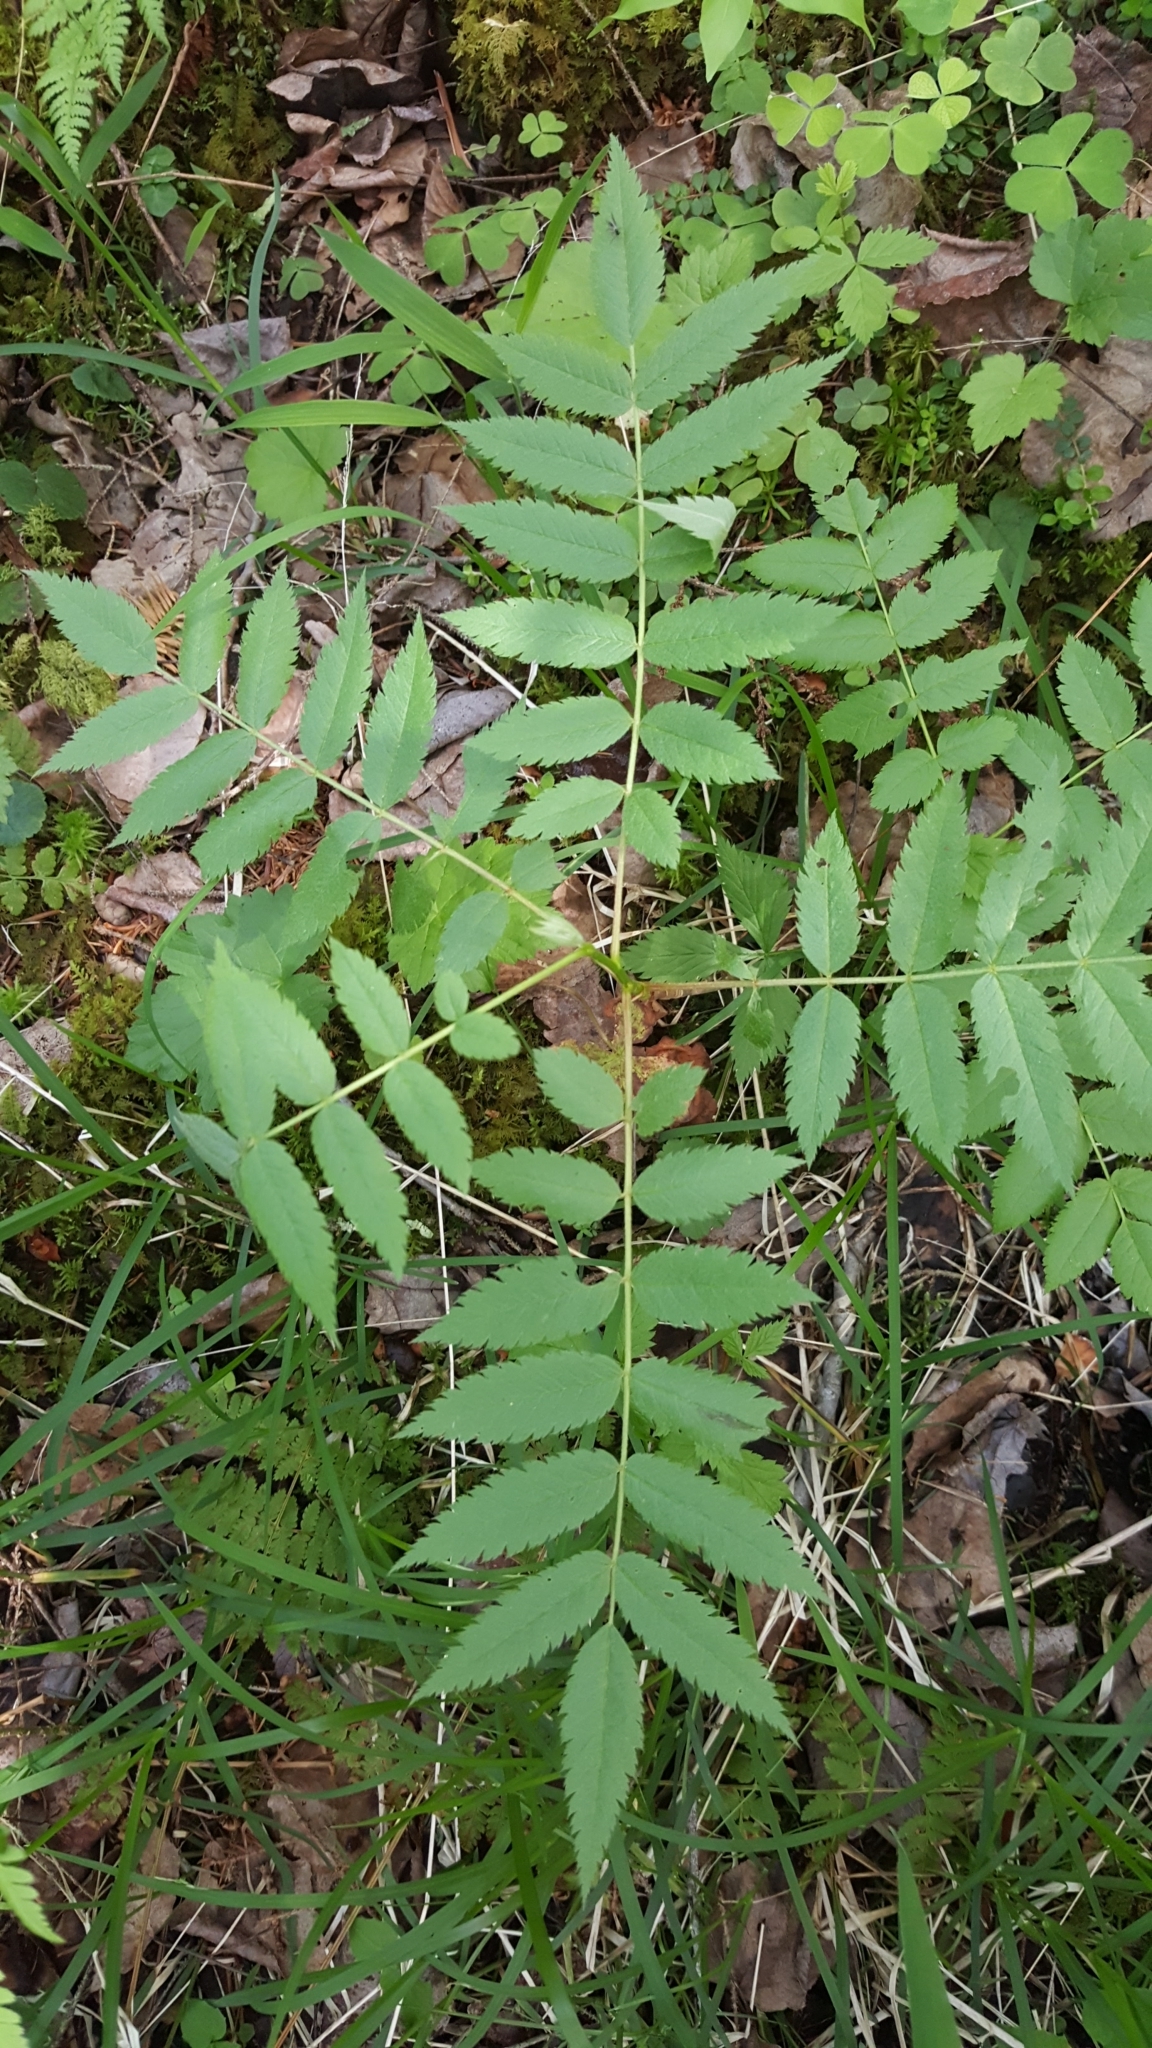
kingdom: Plantae
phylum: Tracheophyta
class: Magnoliopsida
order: Rosales
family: Rosaceae
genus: Sorbus
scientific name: Sorbus americana
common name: American mountain-ash
